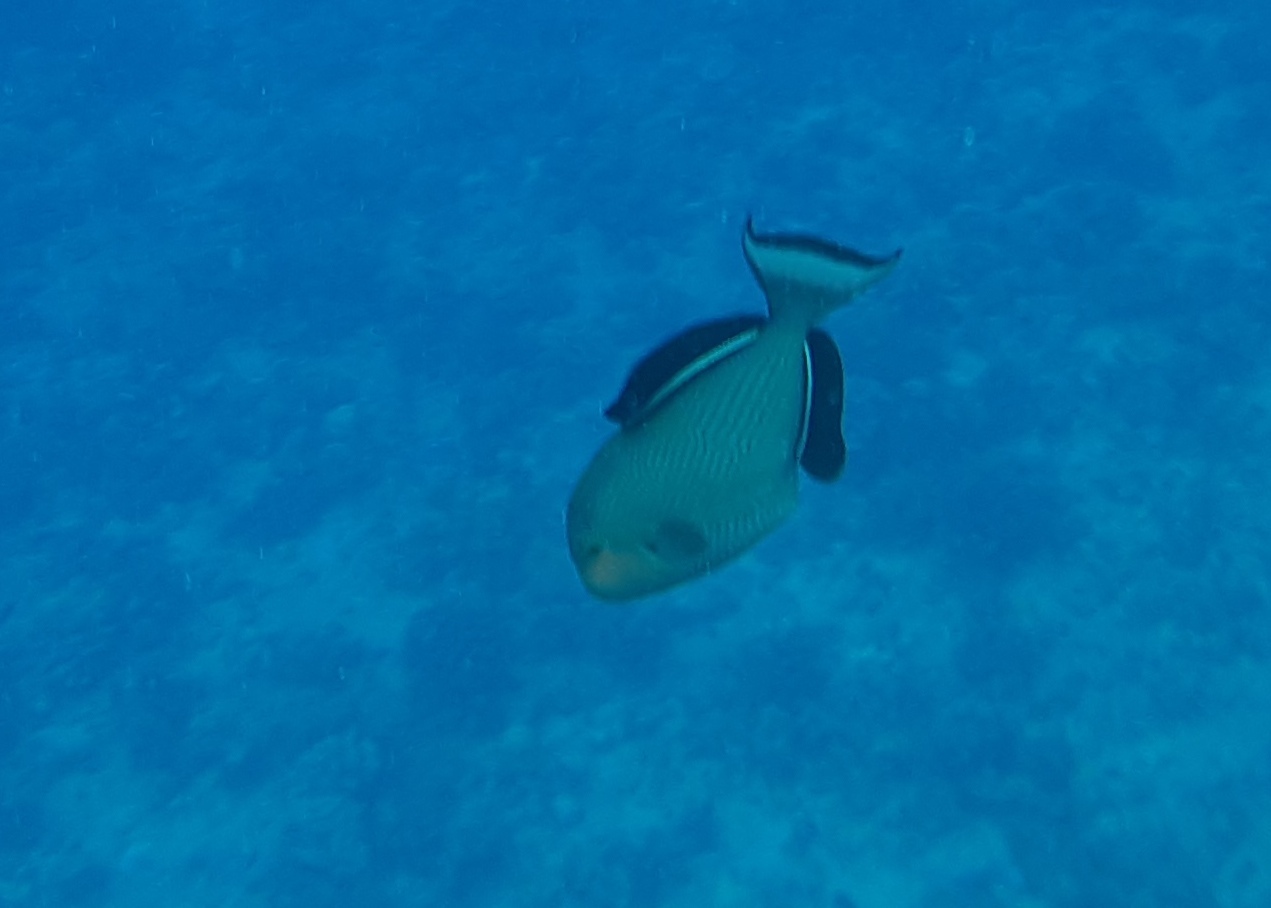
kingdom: Animalia
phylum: Chordata
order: Tetraodontiformes
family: Balistidae
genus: Melichthys
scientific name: Melichthys niger
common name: Black durgon
